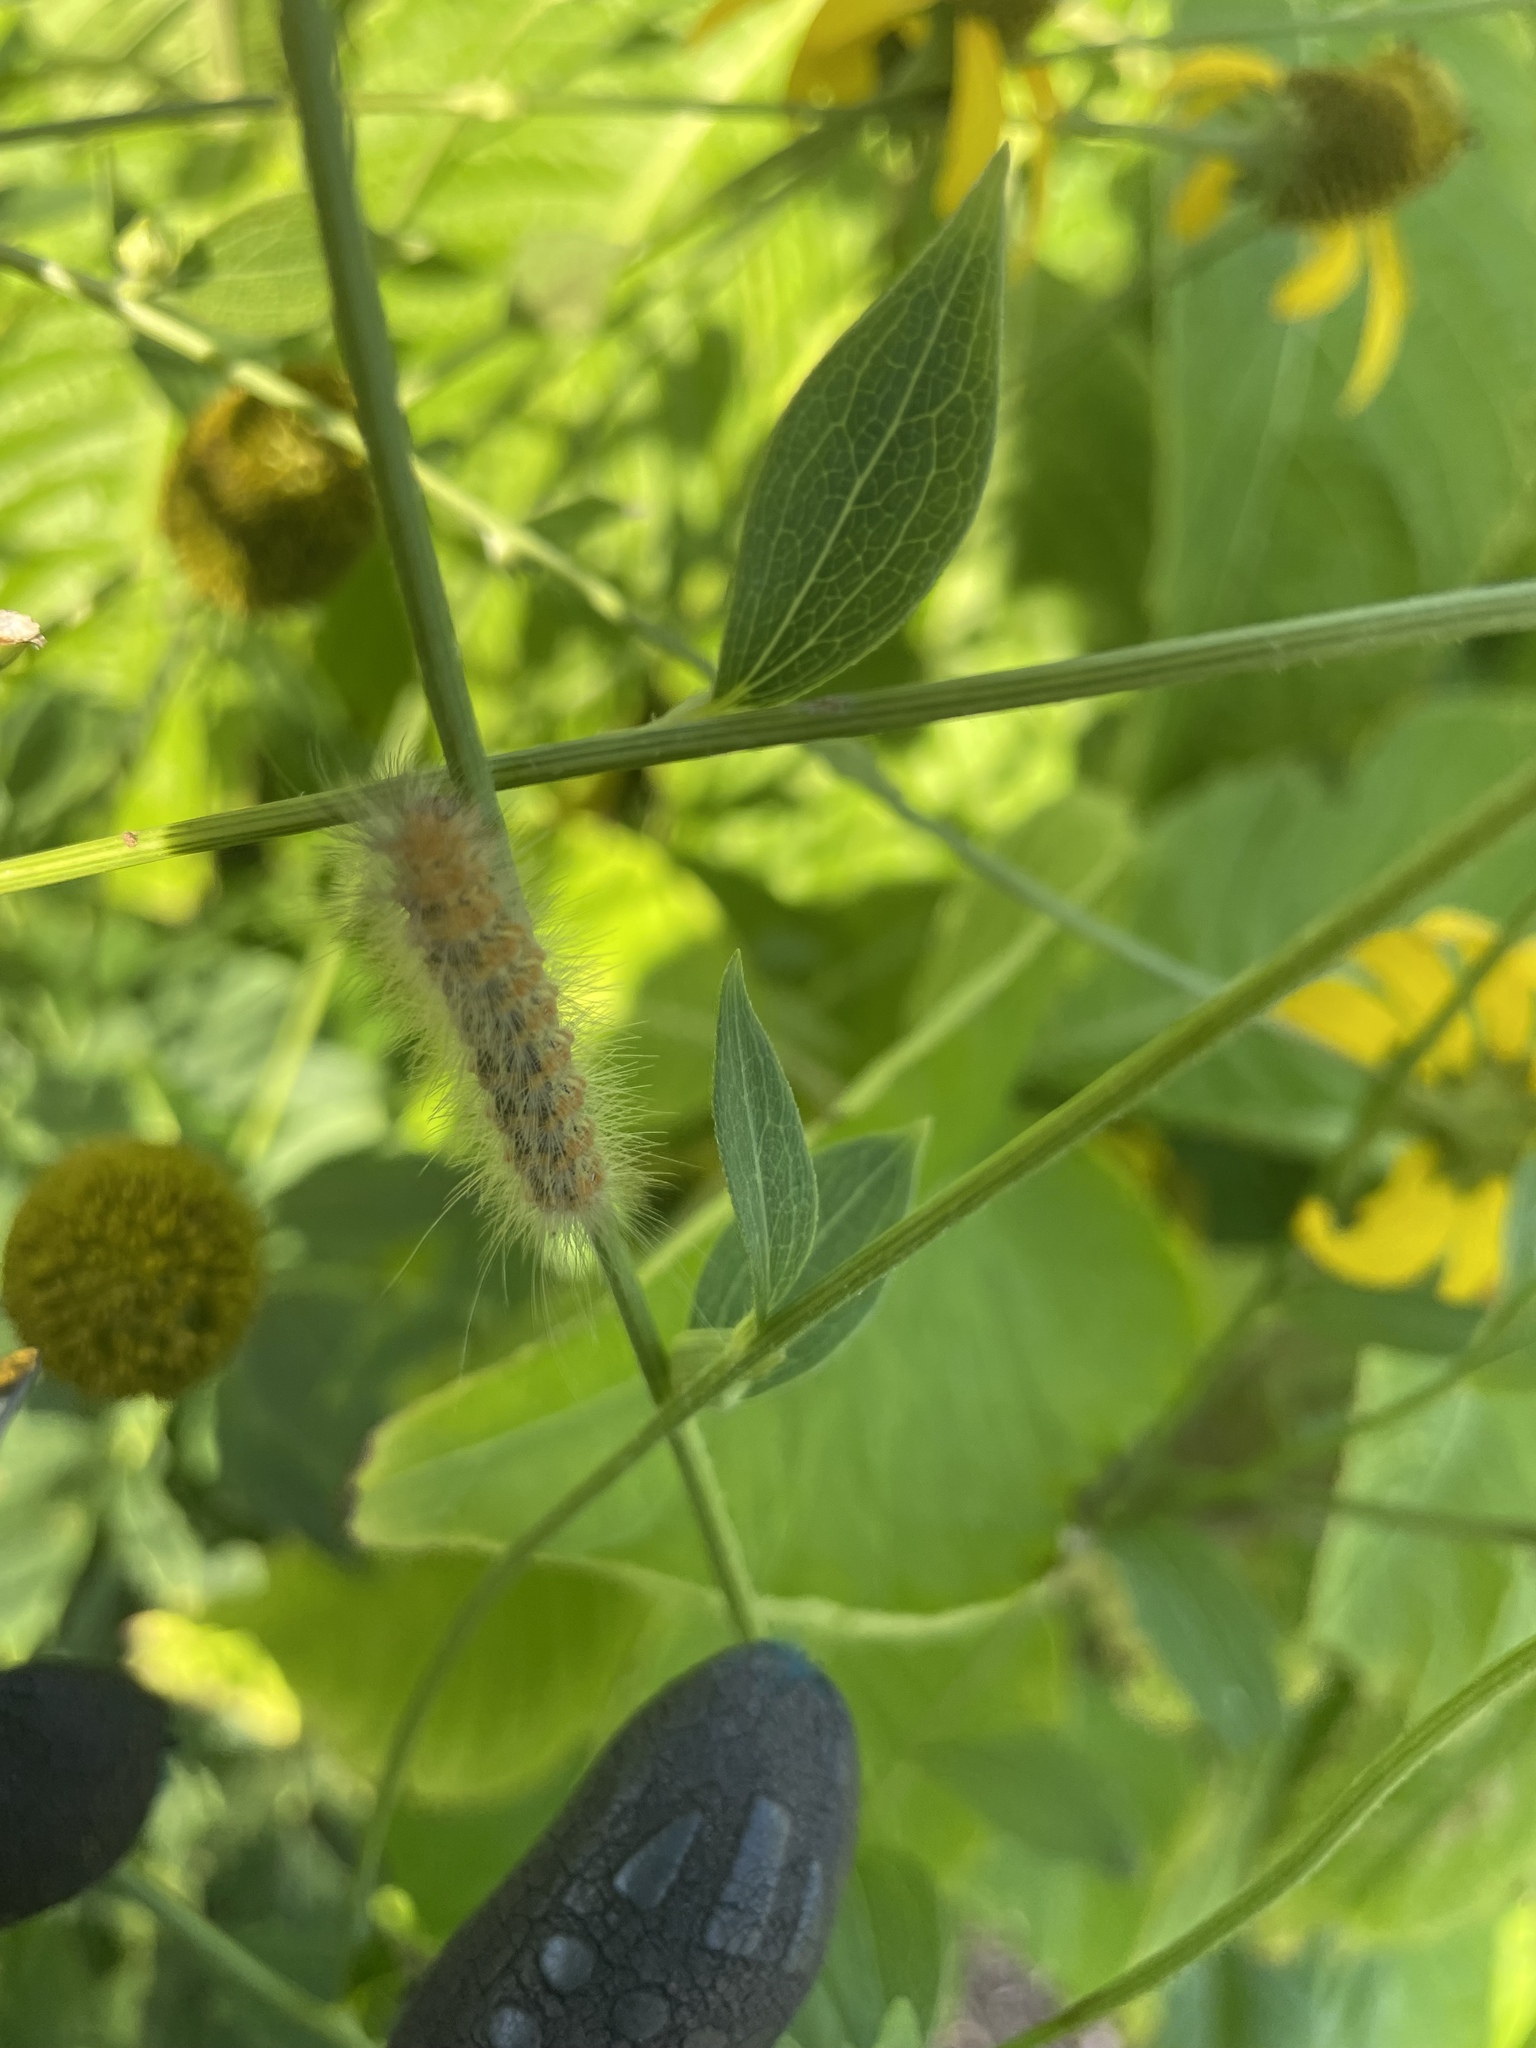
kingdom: Animalia
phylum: Arthropoda
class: Insecta
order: Lepidoptera
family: Erebidae
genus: Estigmene
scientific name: Estigmene acrea
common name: Salt marsh moth
